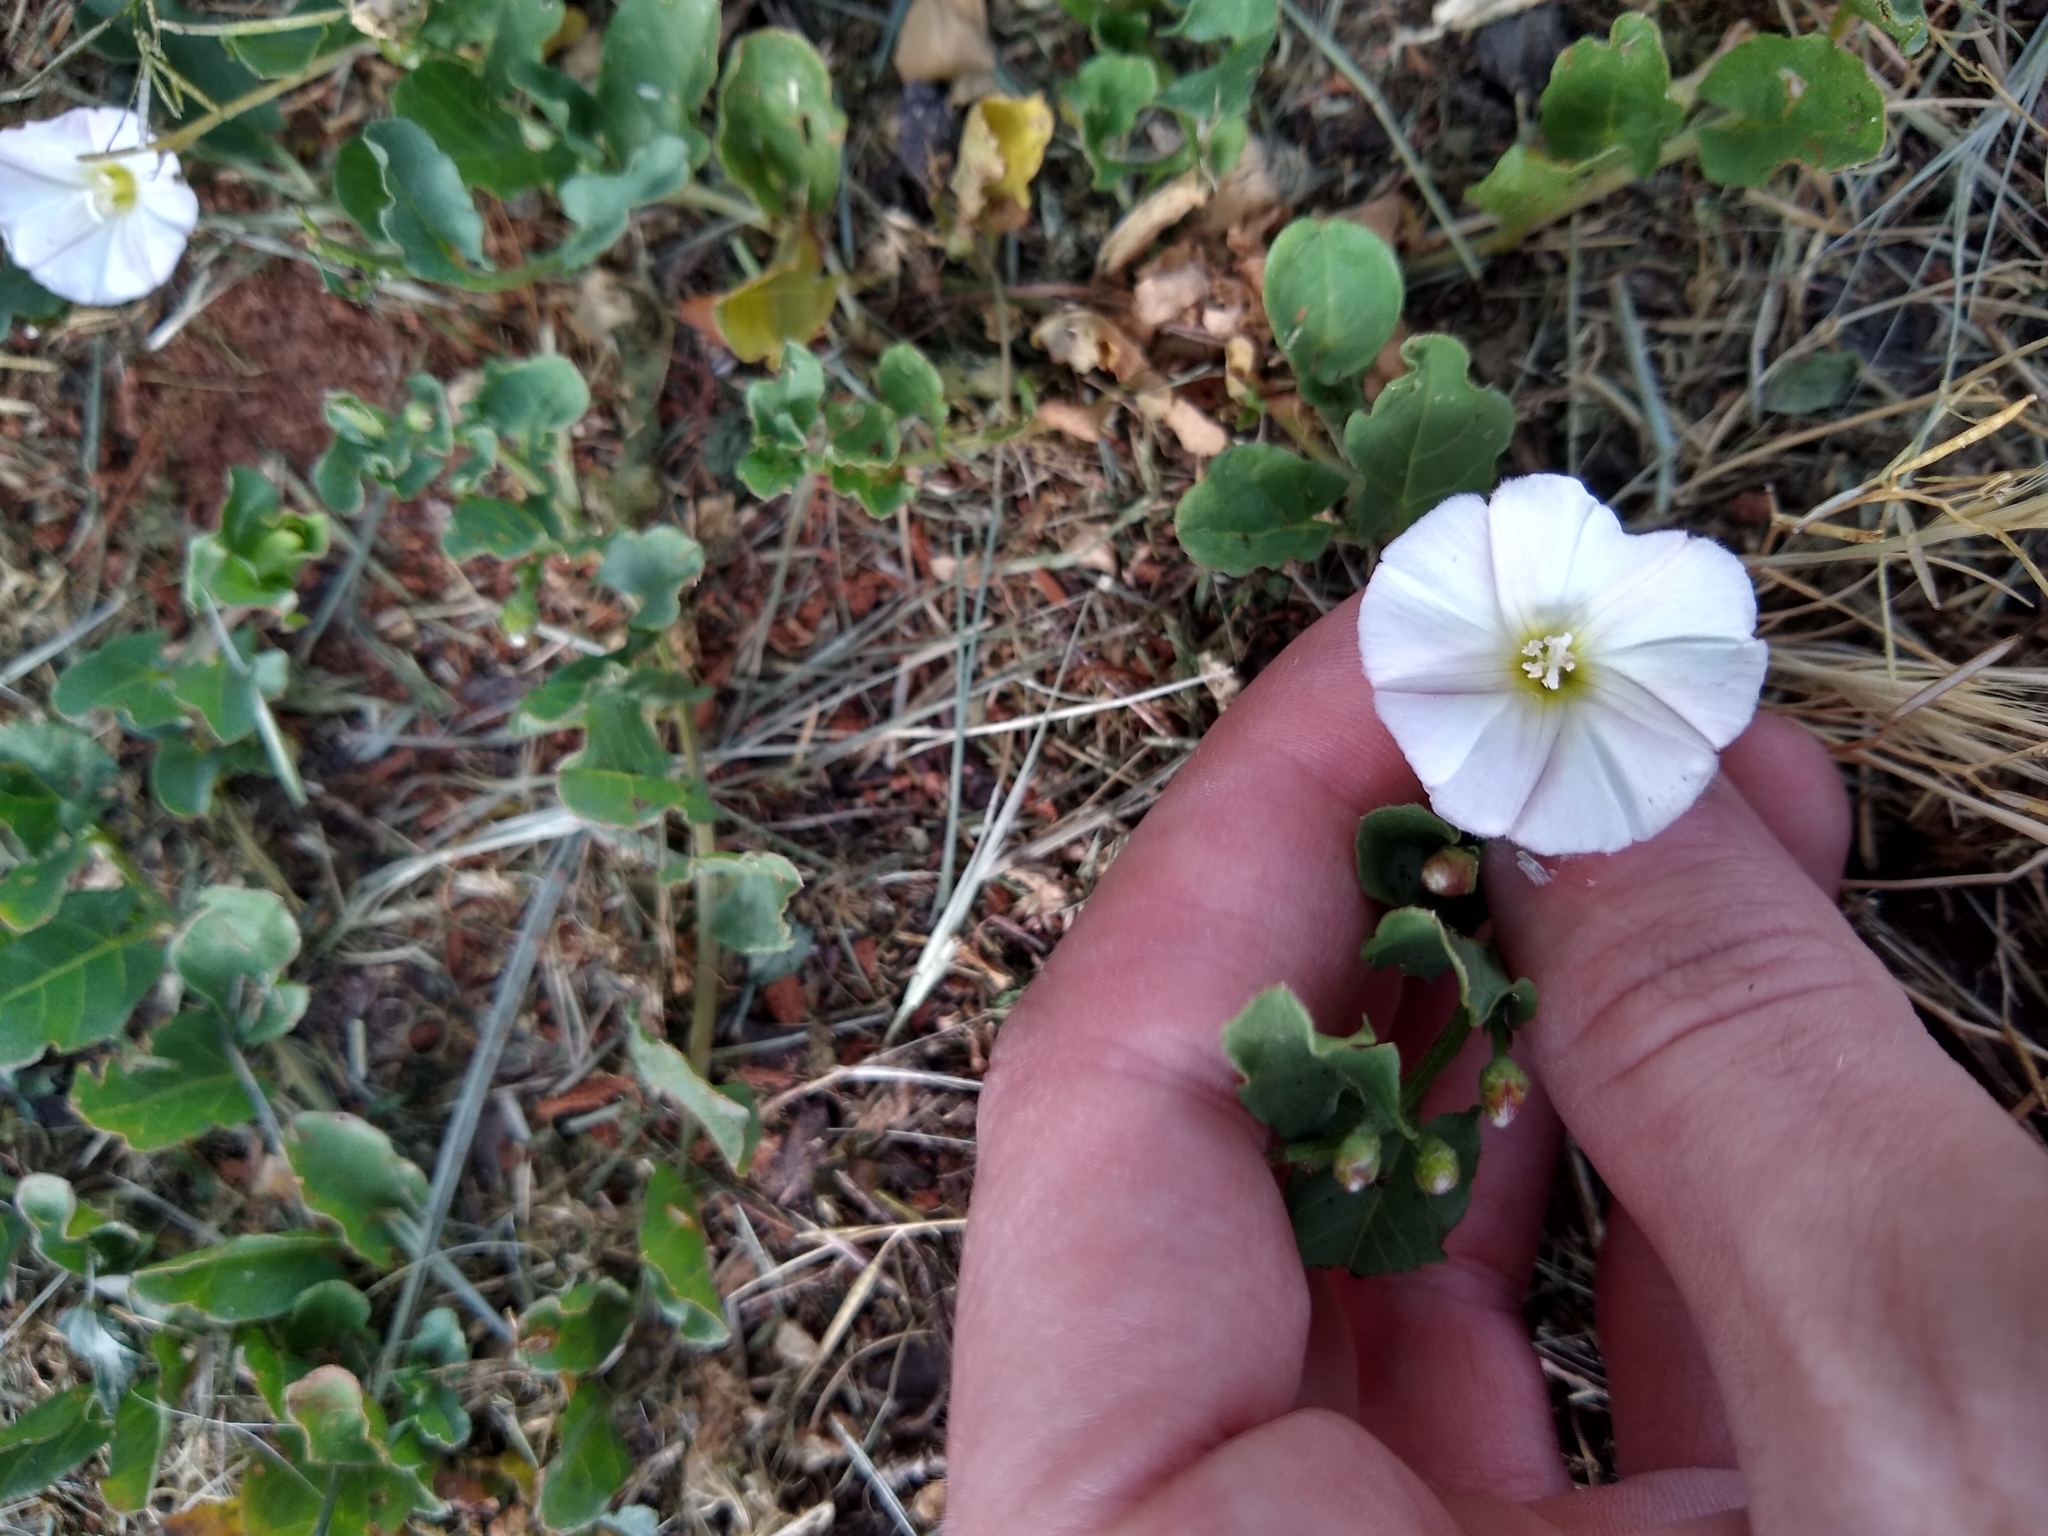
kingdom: Plantae
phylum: Tracheophyta
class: Magnoliopsida
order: Solanales
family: Convolvulaceae
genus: Convolvulus
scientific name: Convolvulus arvensis
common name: Field bindweed
